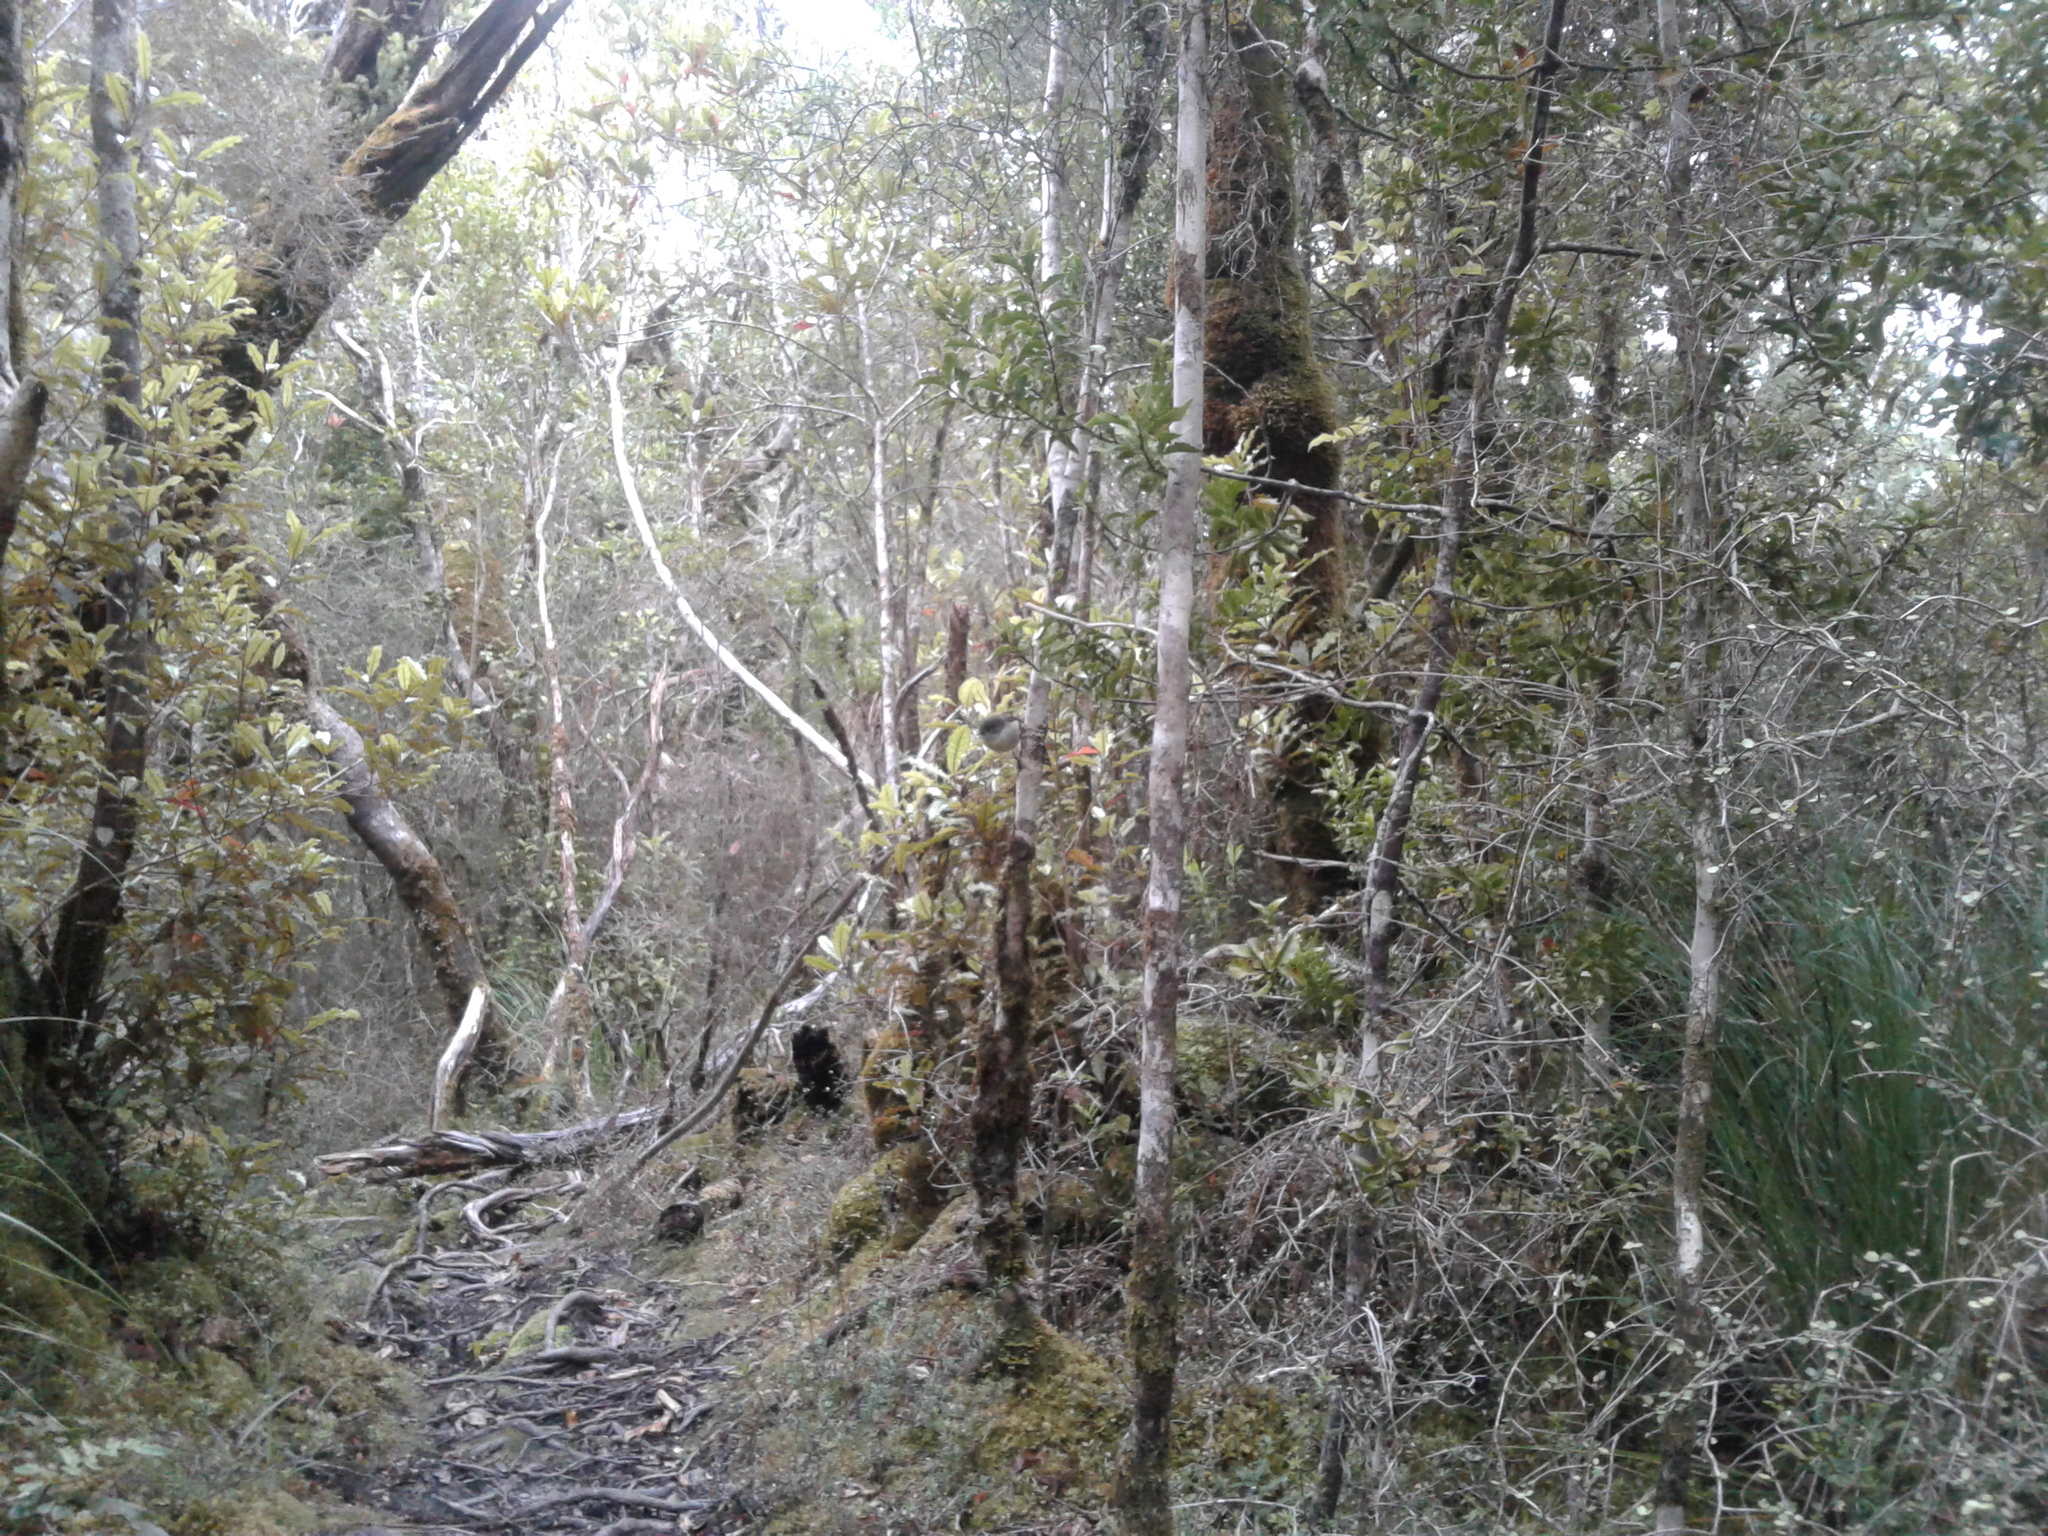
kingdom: Animalia
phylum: Chordata
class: Aves
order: Passeriformes
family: Petroicidae
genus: Petroica
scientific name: Petroica macrocephala
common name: Tomtit
